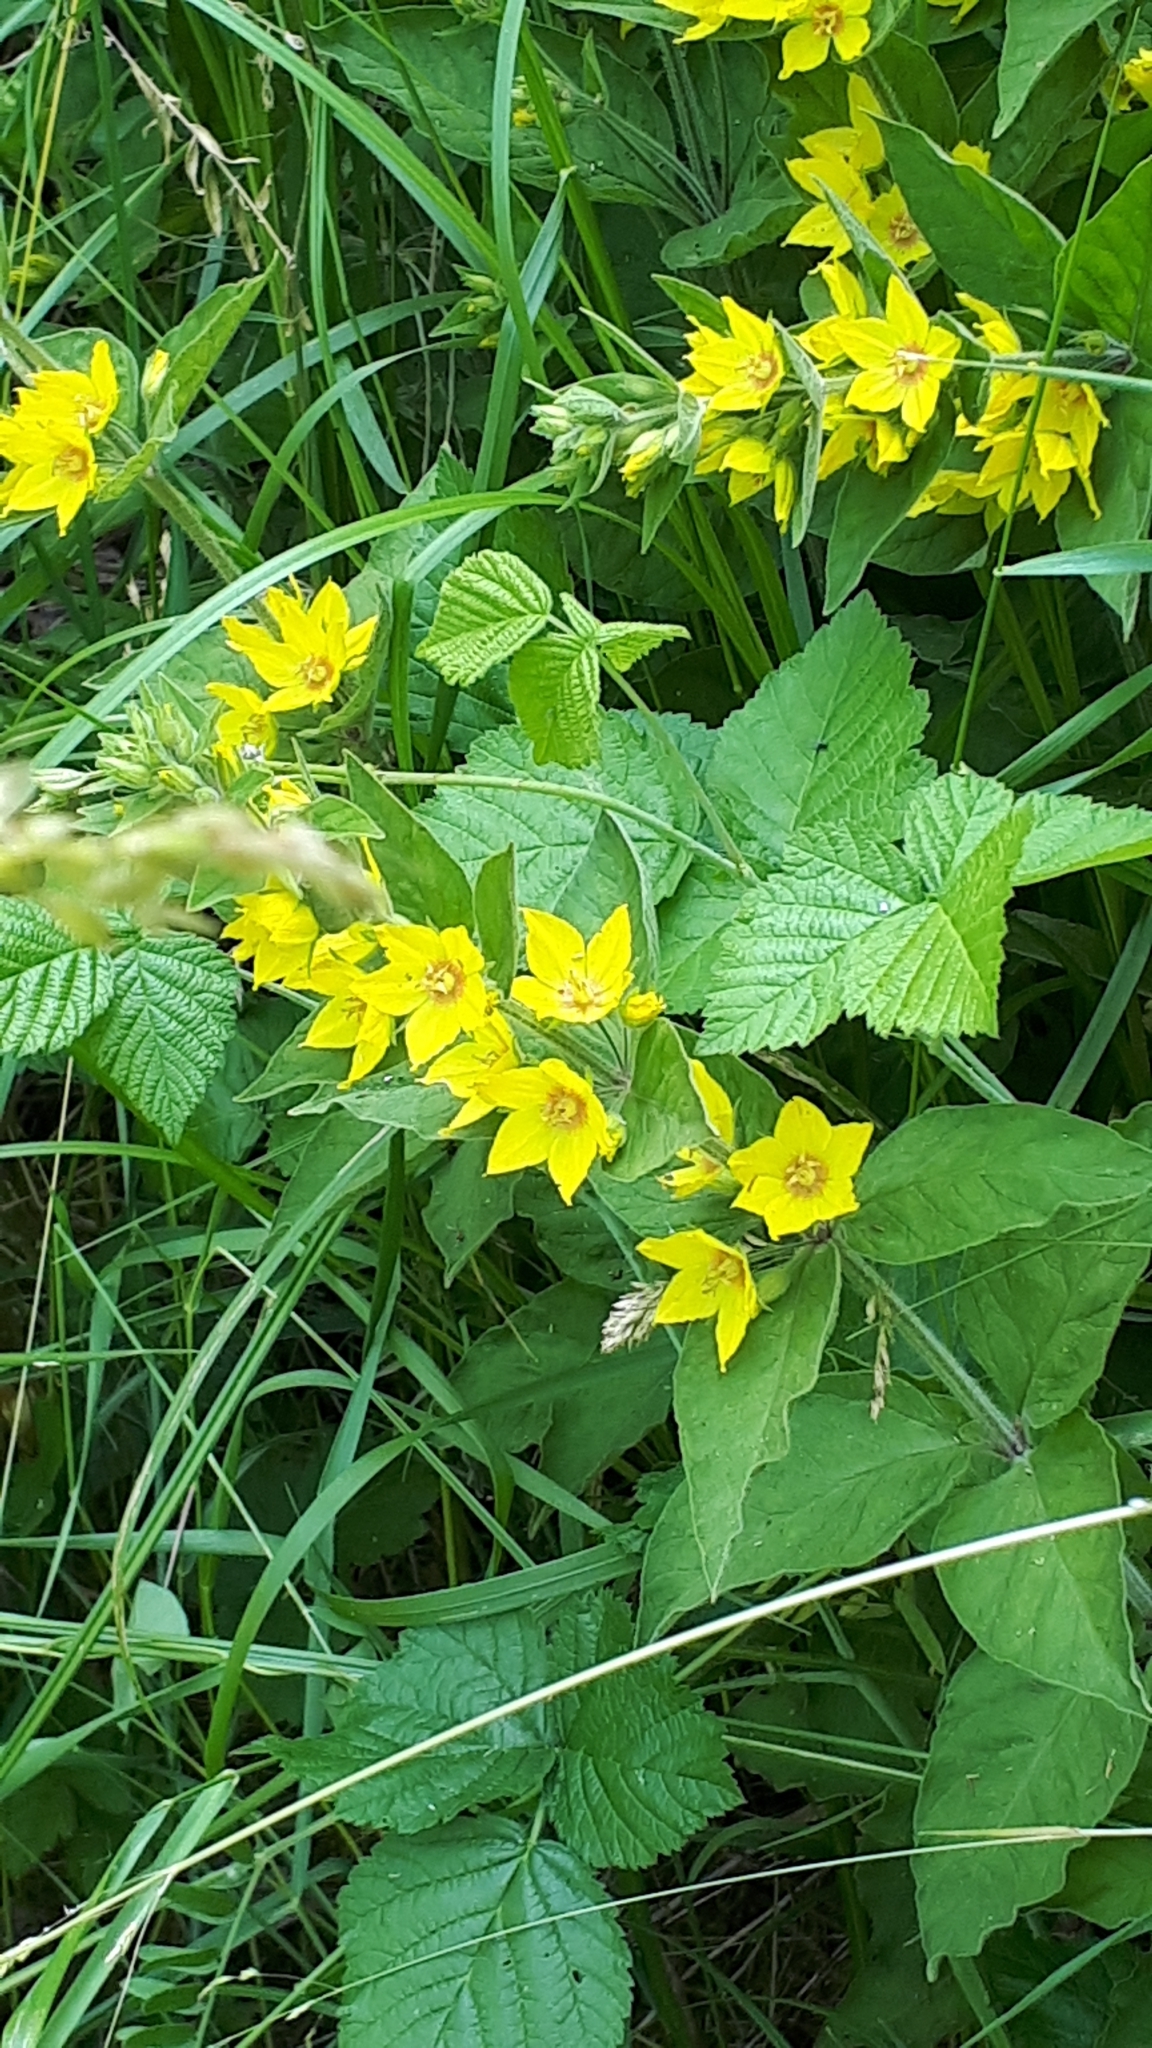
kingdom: Plantae
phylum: Tracheophyta
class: Magnoliopsida
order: Ericales
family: Primulaceae
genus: Lysimachia
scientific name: Lysimachia punctata
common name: Dotted loosestrife
